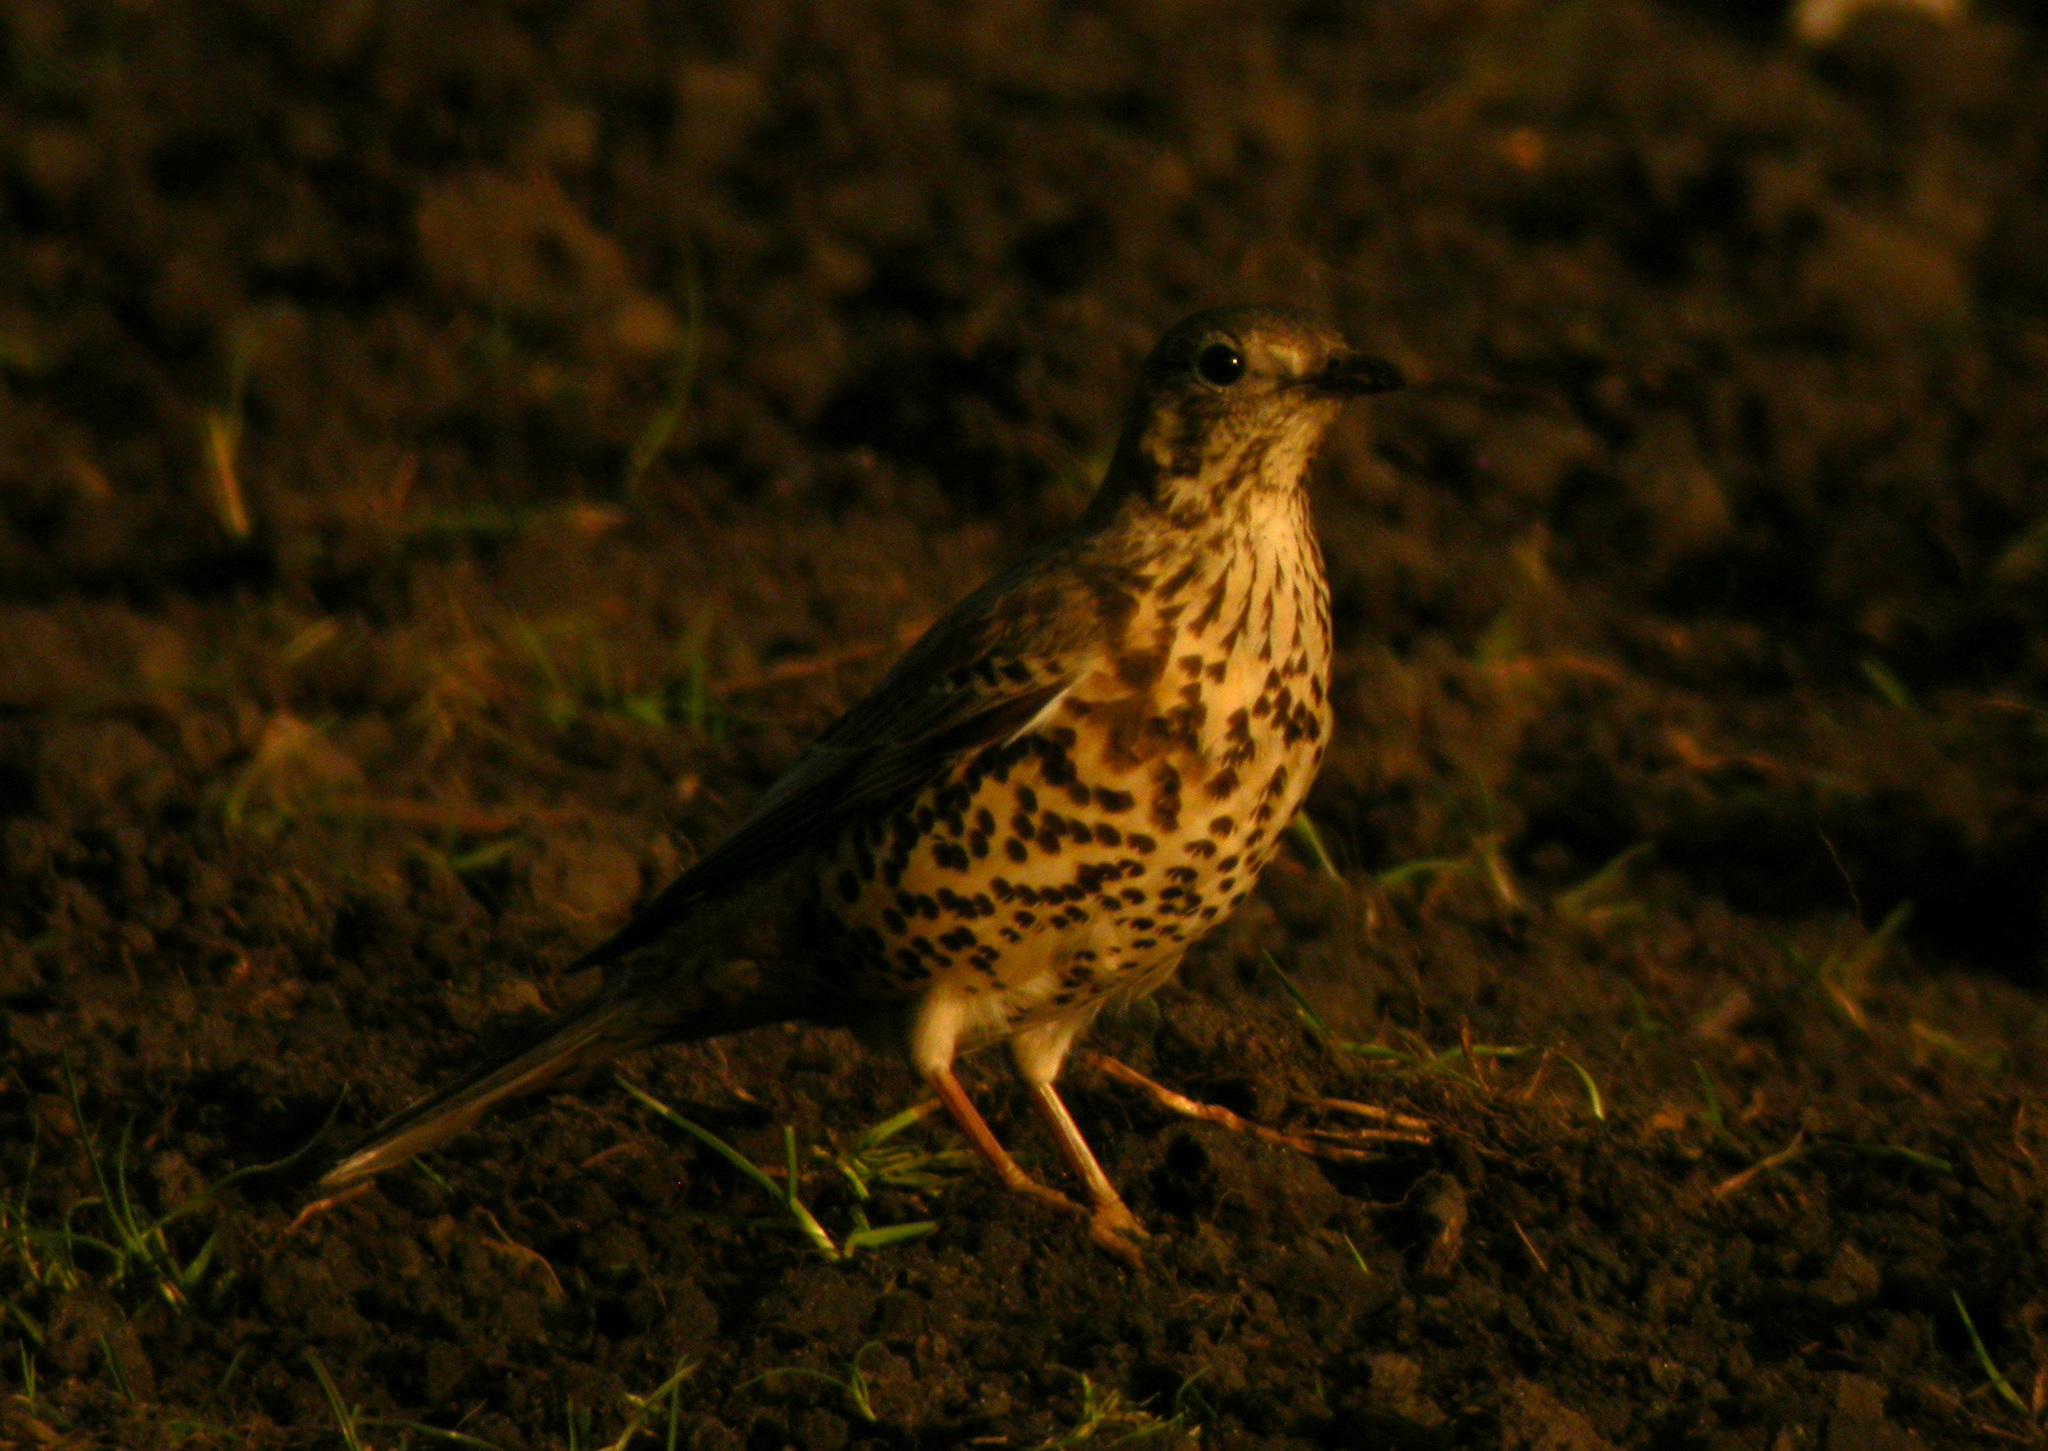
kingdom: Animalia
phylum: Chordata
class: Aves
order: Passeriformes
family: Turdidae
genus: Turdus
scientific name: Turdus viscivorus
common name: Mistle thrush
